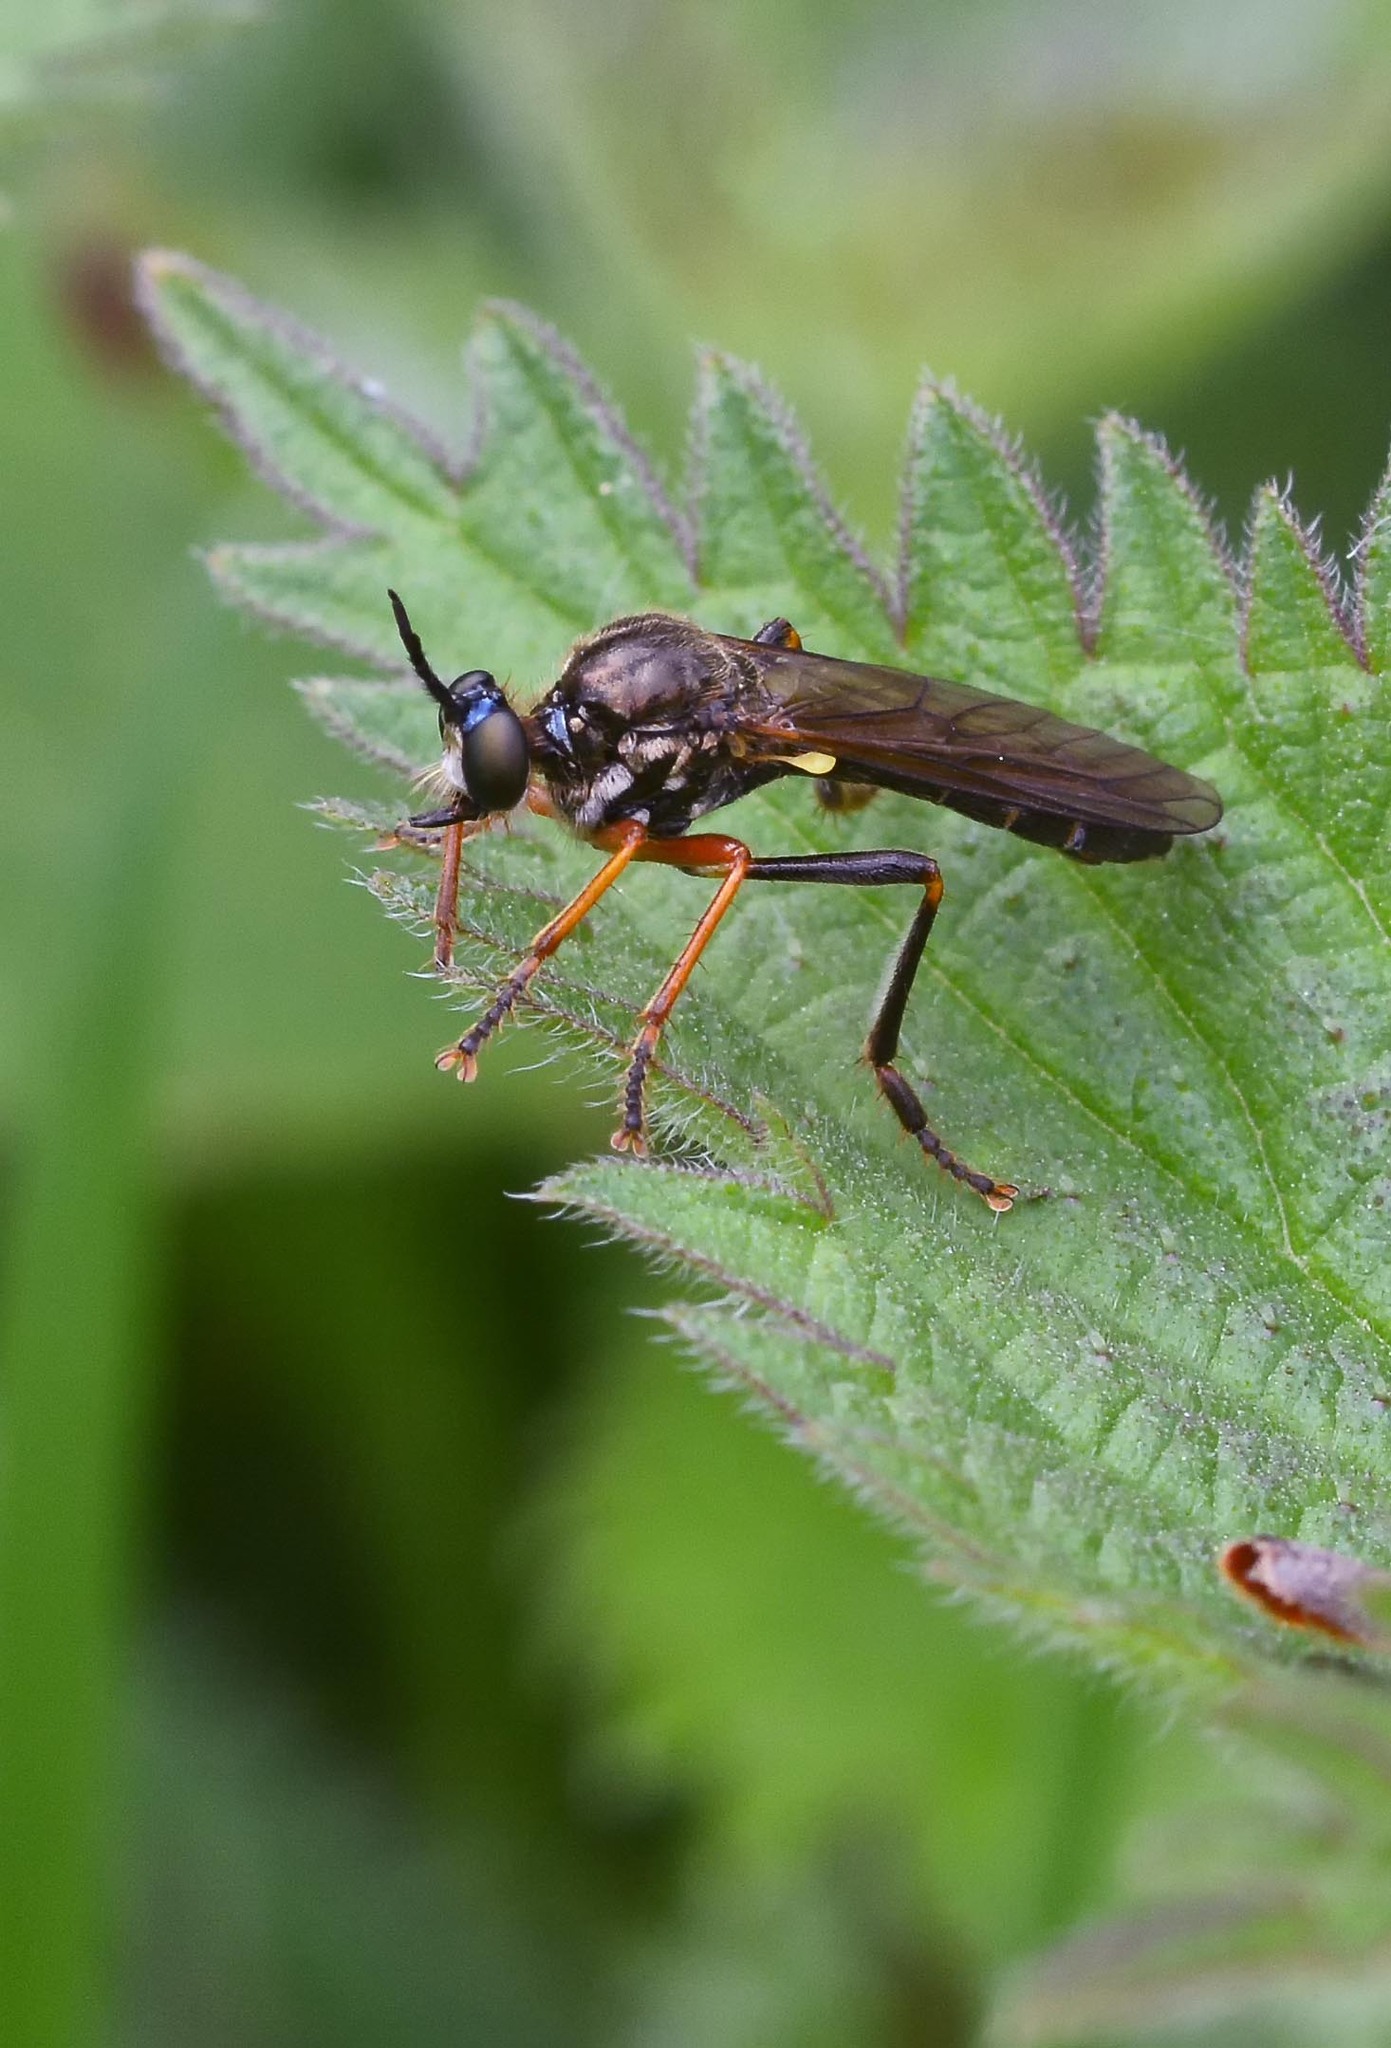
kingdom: Animalia
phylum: Arthropoda
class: Insecta
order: Diptera
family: Asilidae
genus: Dioctria
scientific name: Dioctria rufipes
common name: Common red-legged robberfly
